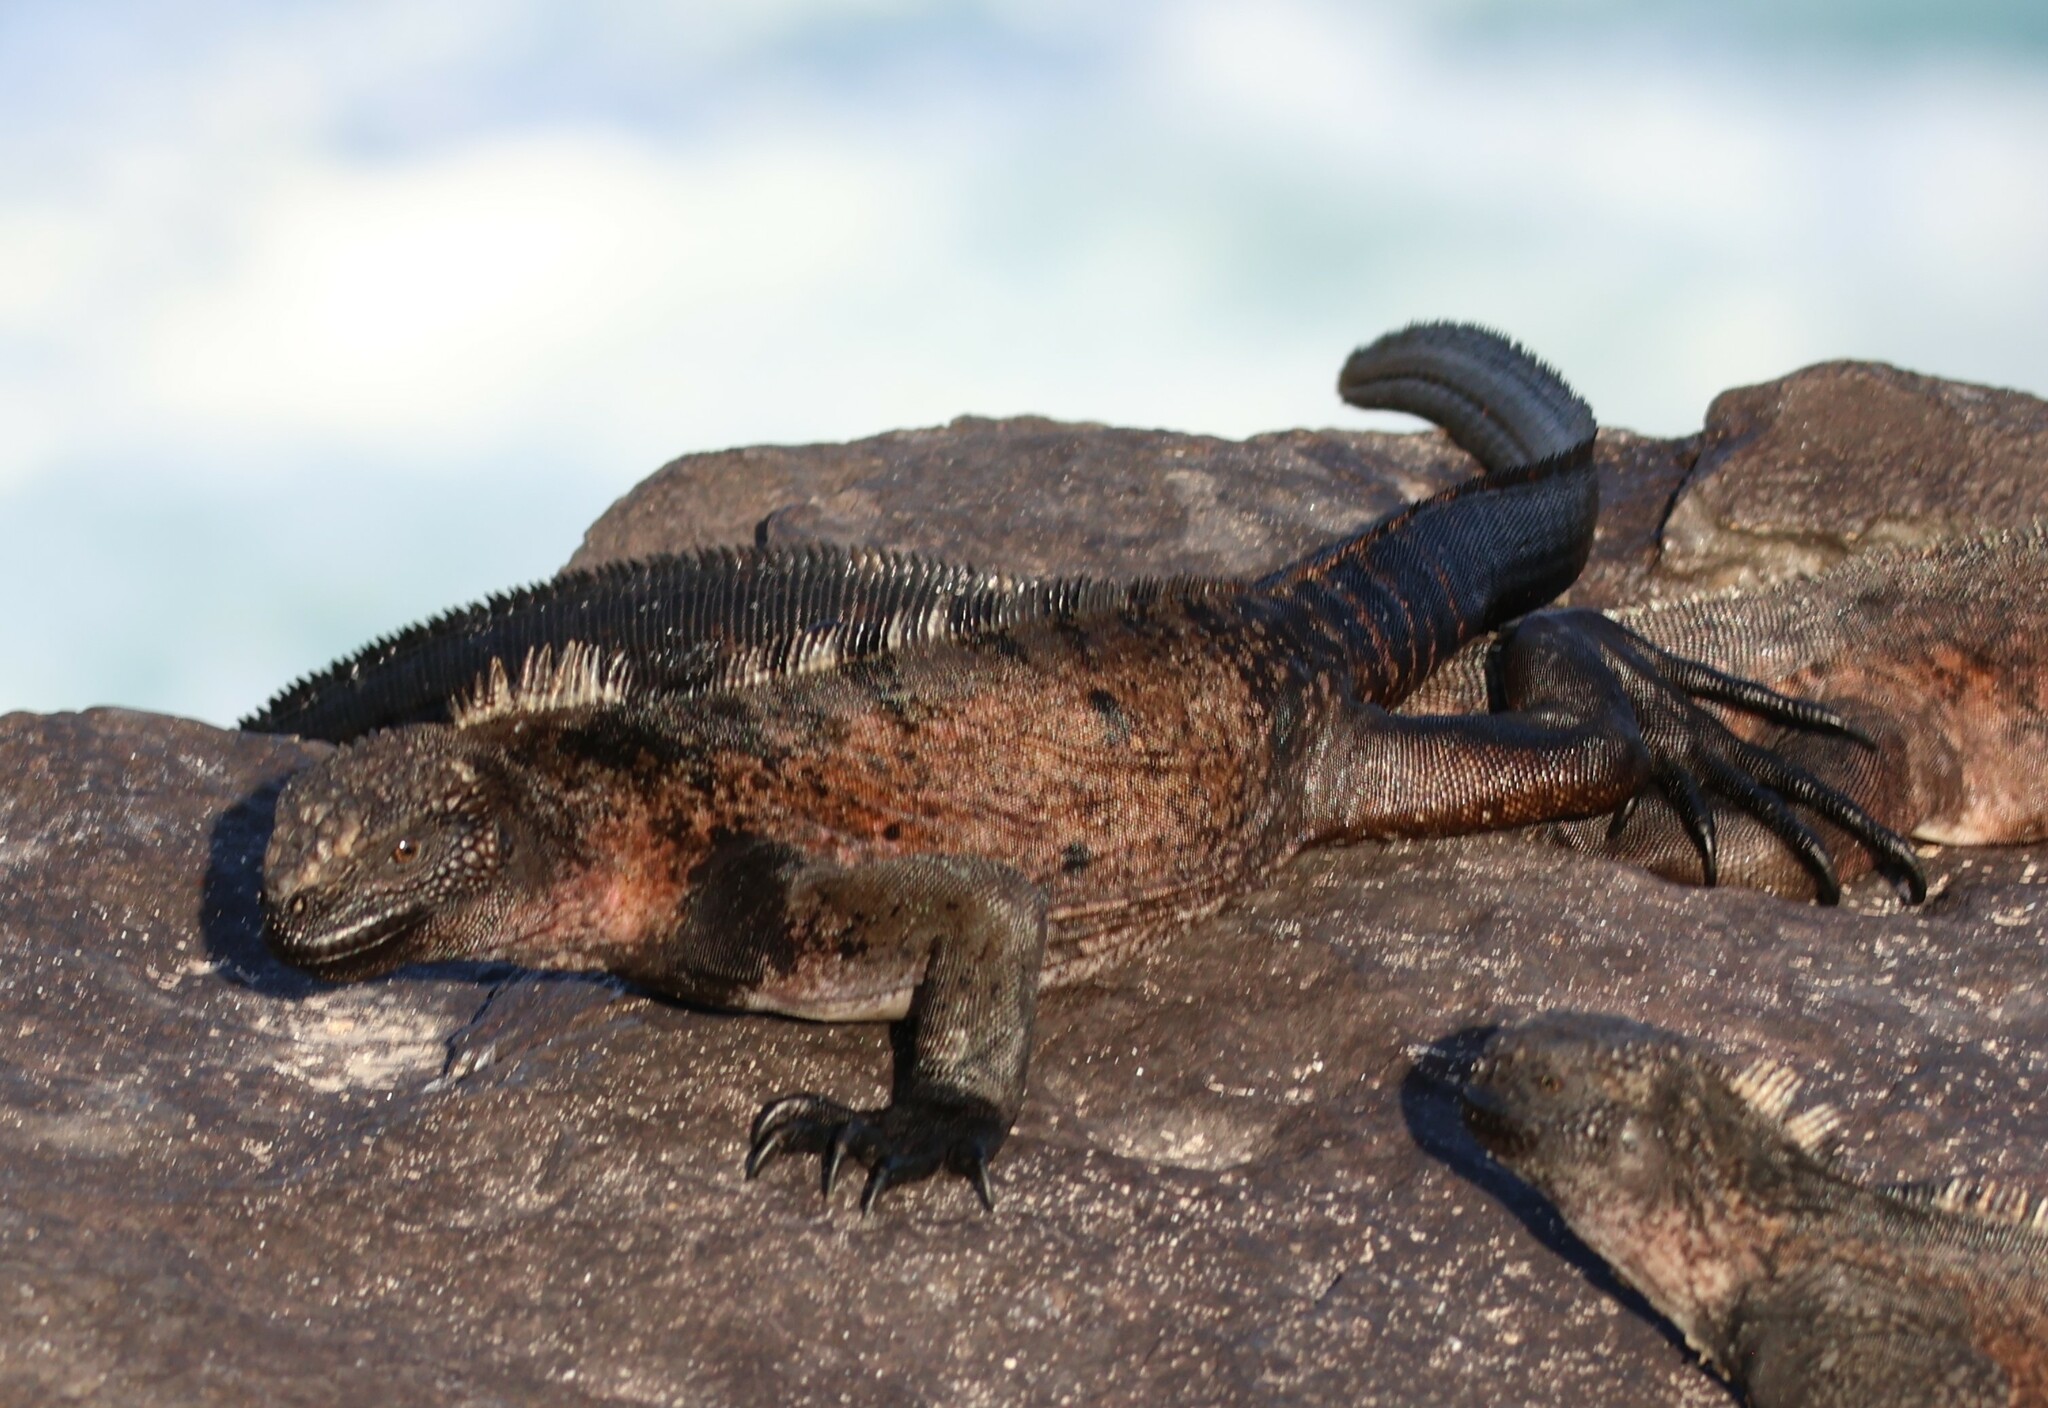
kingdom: Animalia
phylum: Chordata
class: Squamata
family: Iguanidae
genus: Amblyrhynchus
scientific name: Amblyrhynchus cristatus
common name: Marine iguana
